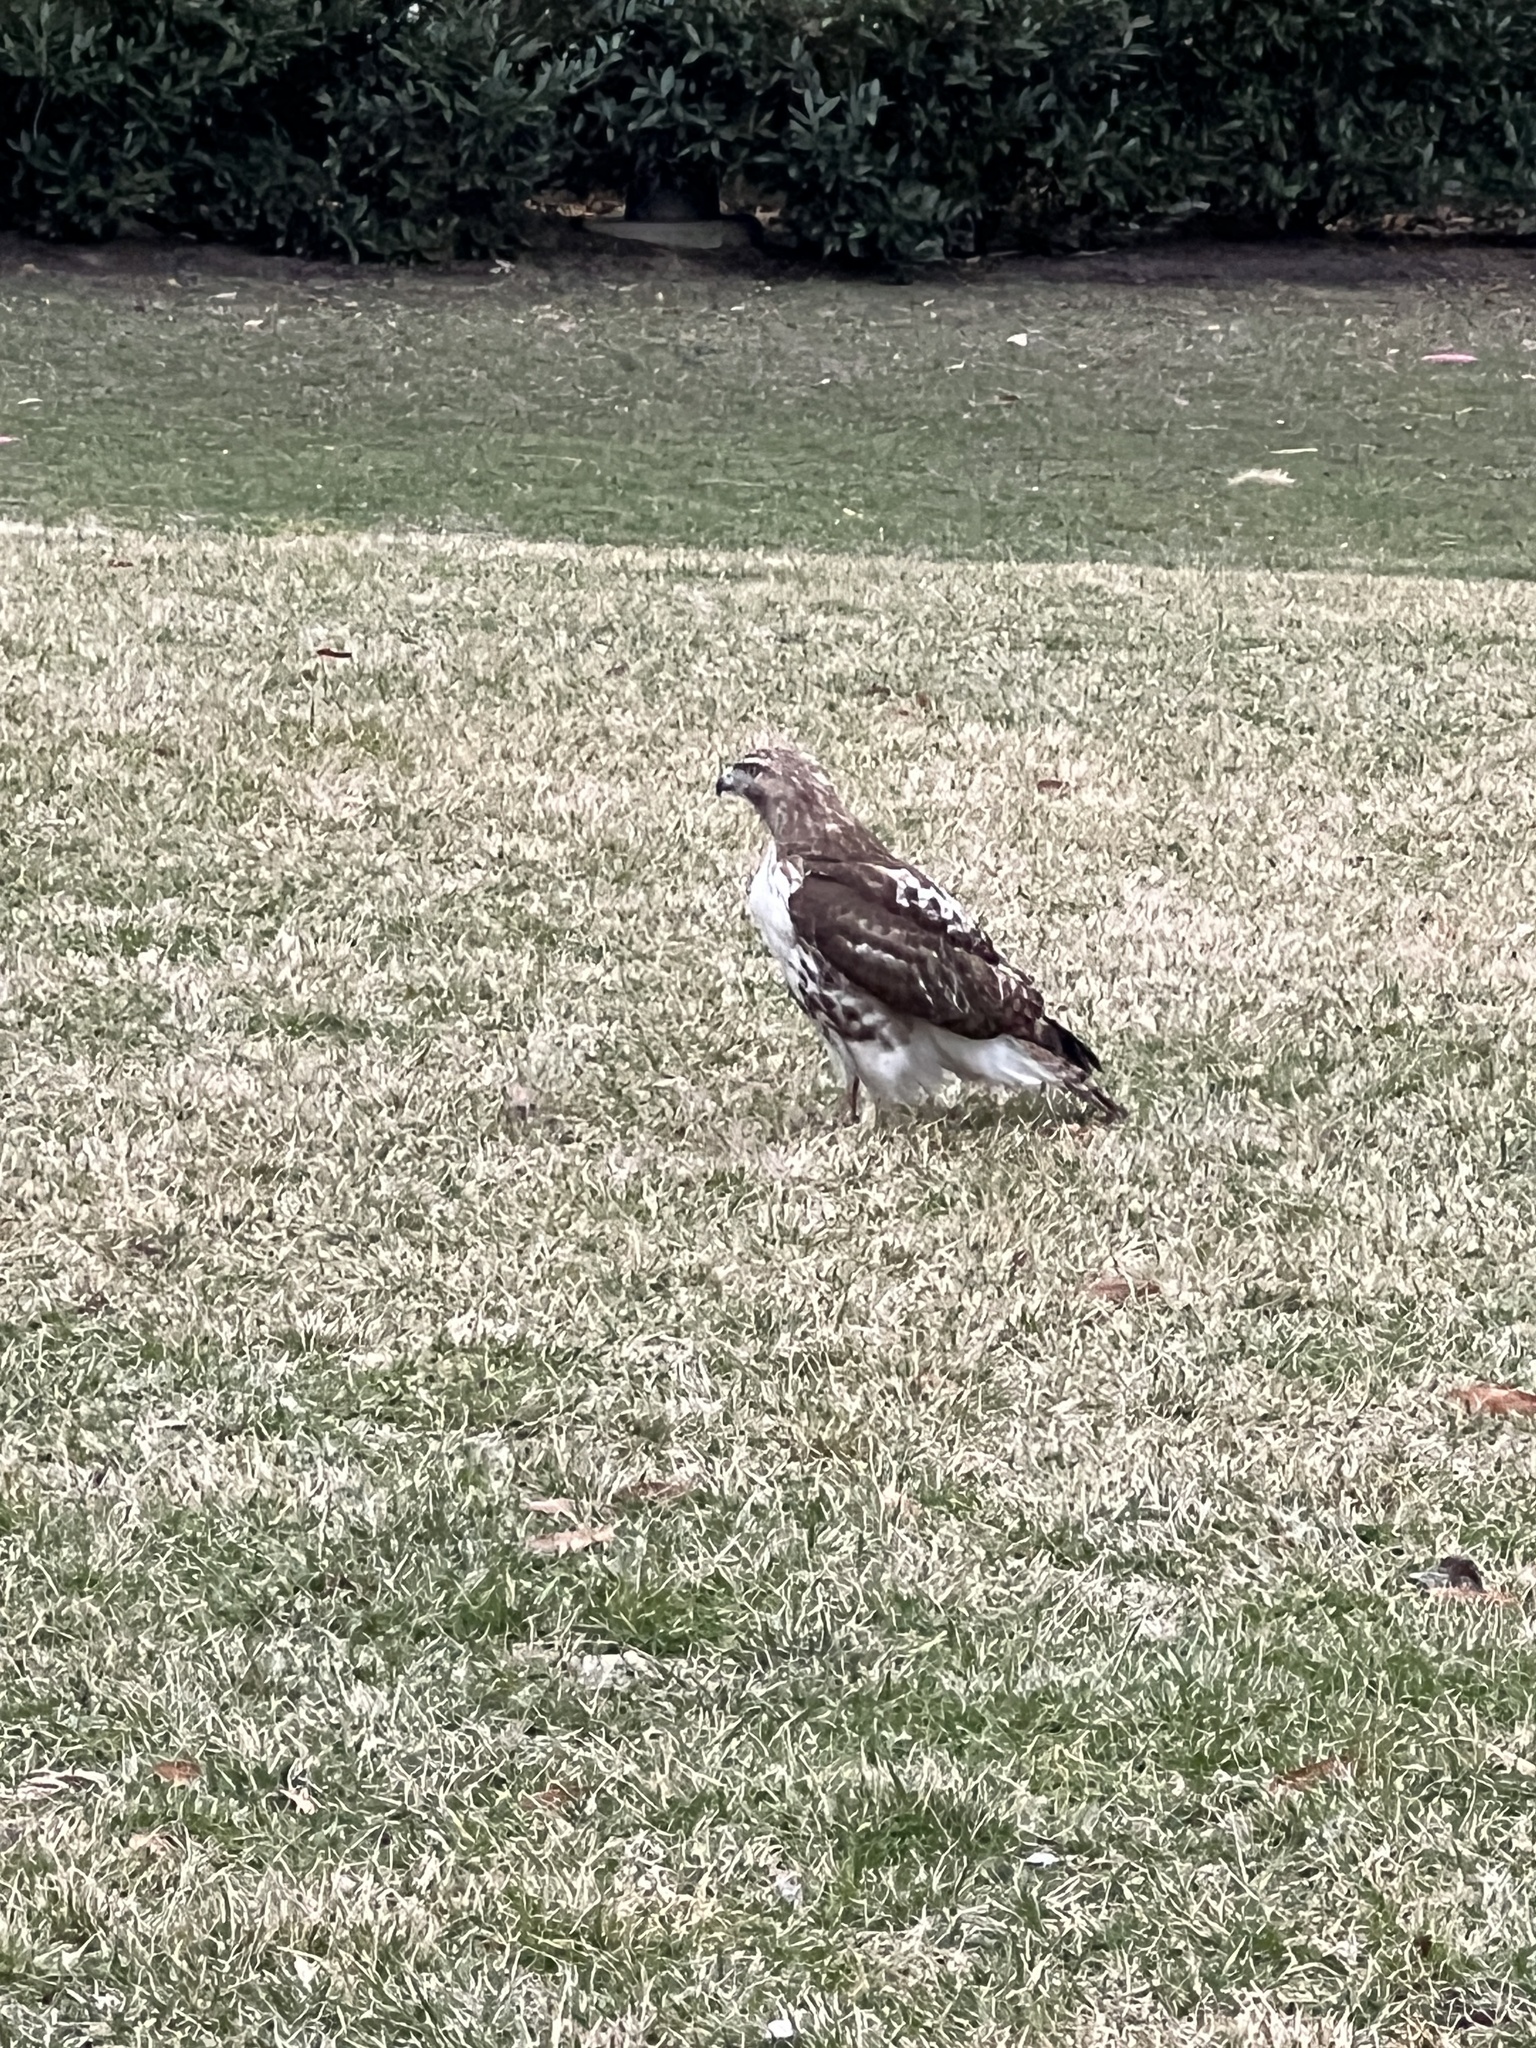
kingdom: Animalia
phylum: Chordata
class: Aves
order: Accipitriformes
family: Accipitridae
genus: Buteo
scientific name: Buteo jamaicensis
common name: Red-tailed hawk
